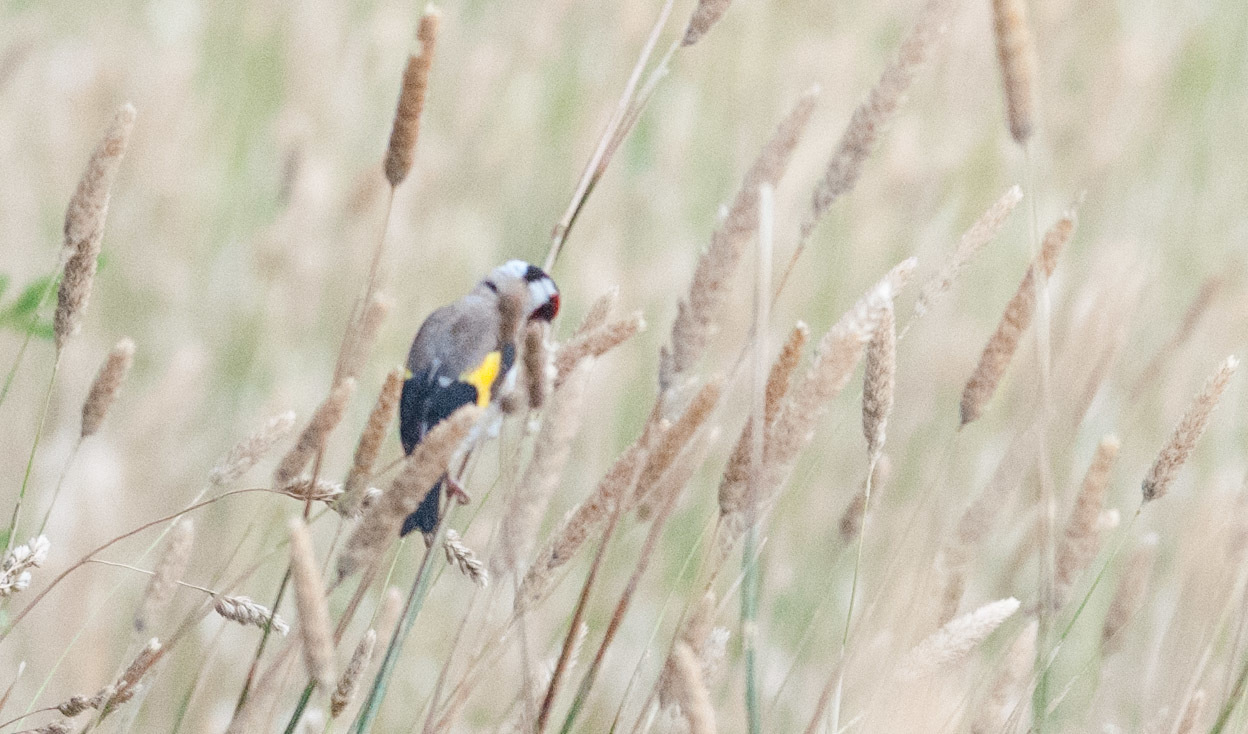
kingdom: Animalia
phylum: Chordata
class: Aves
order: Passeriformes
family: Fringillidae
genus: Carduelis
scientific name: Carduelis carduelis
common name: European goldfinch
